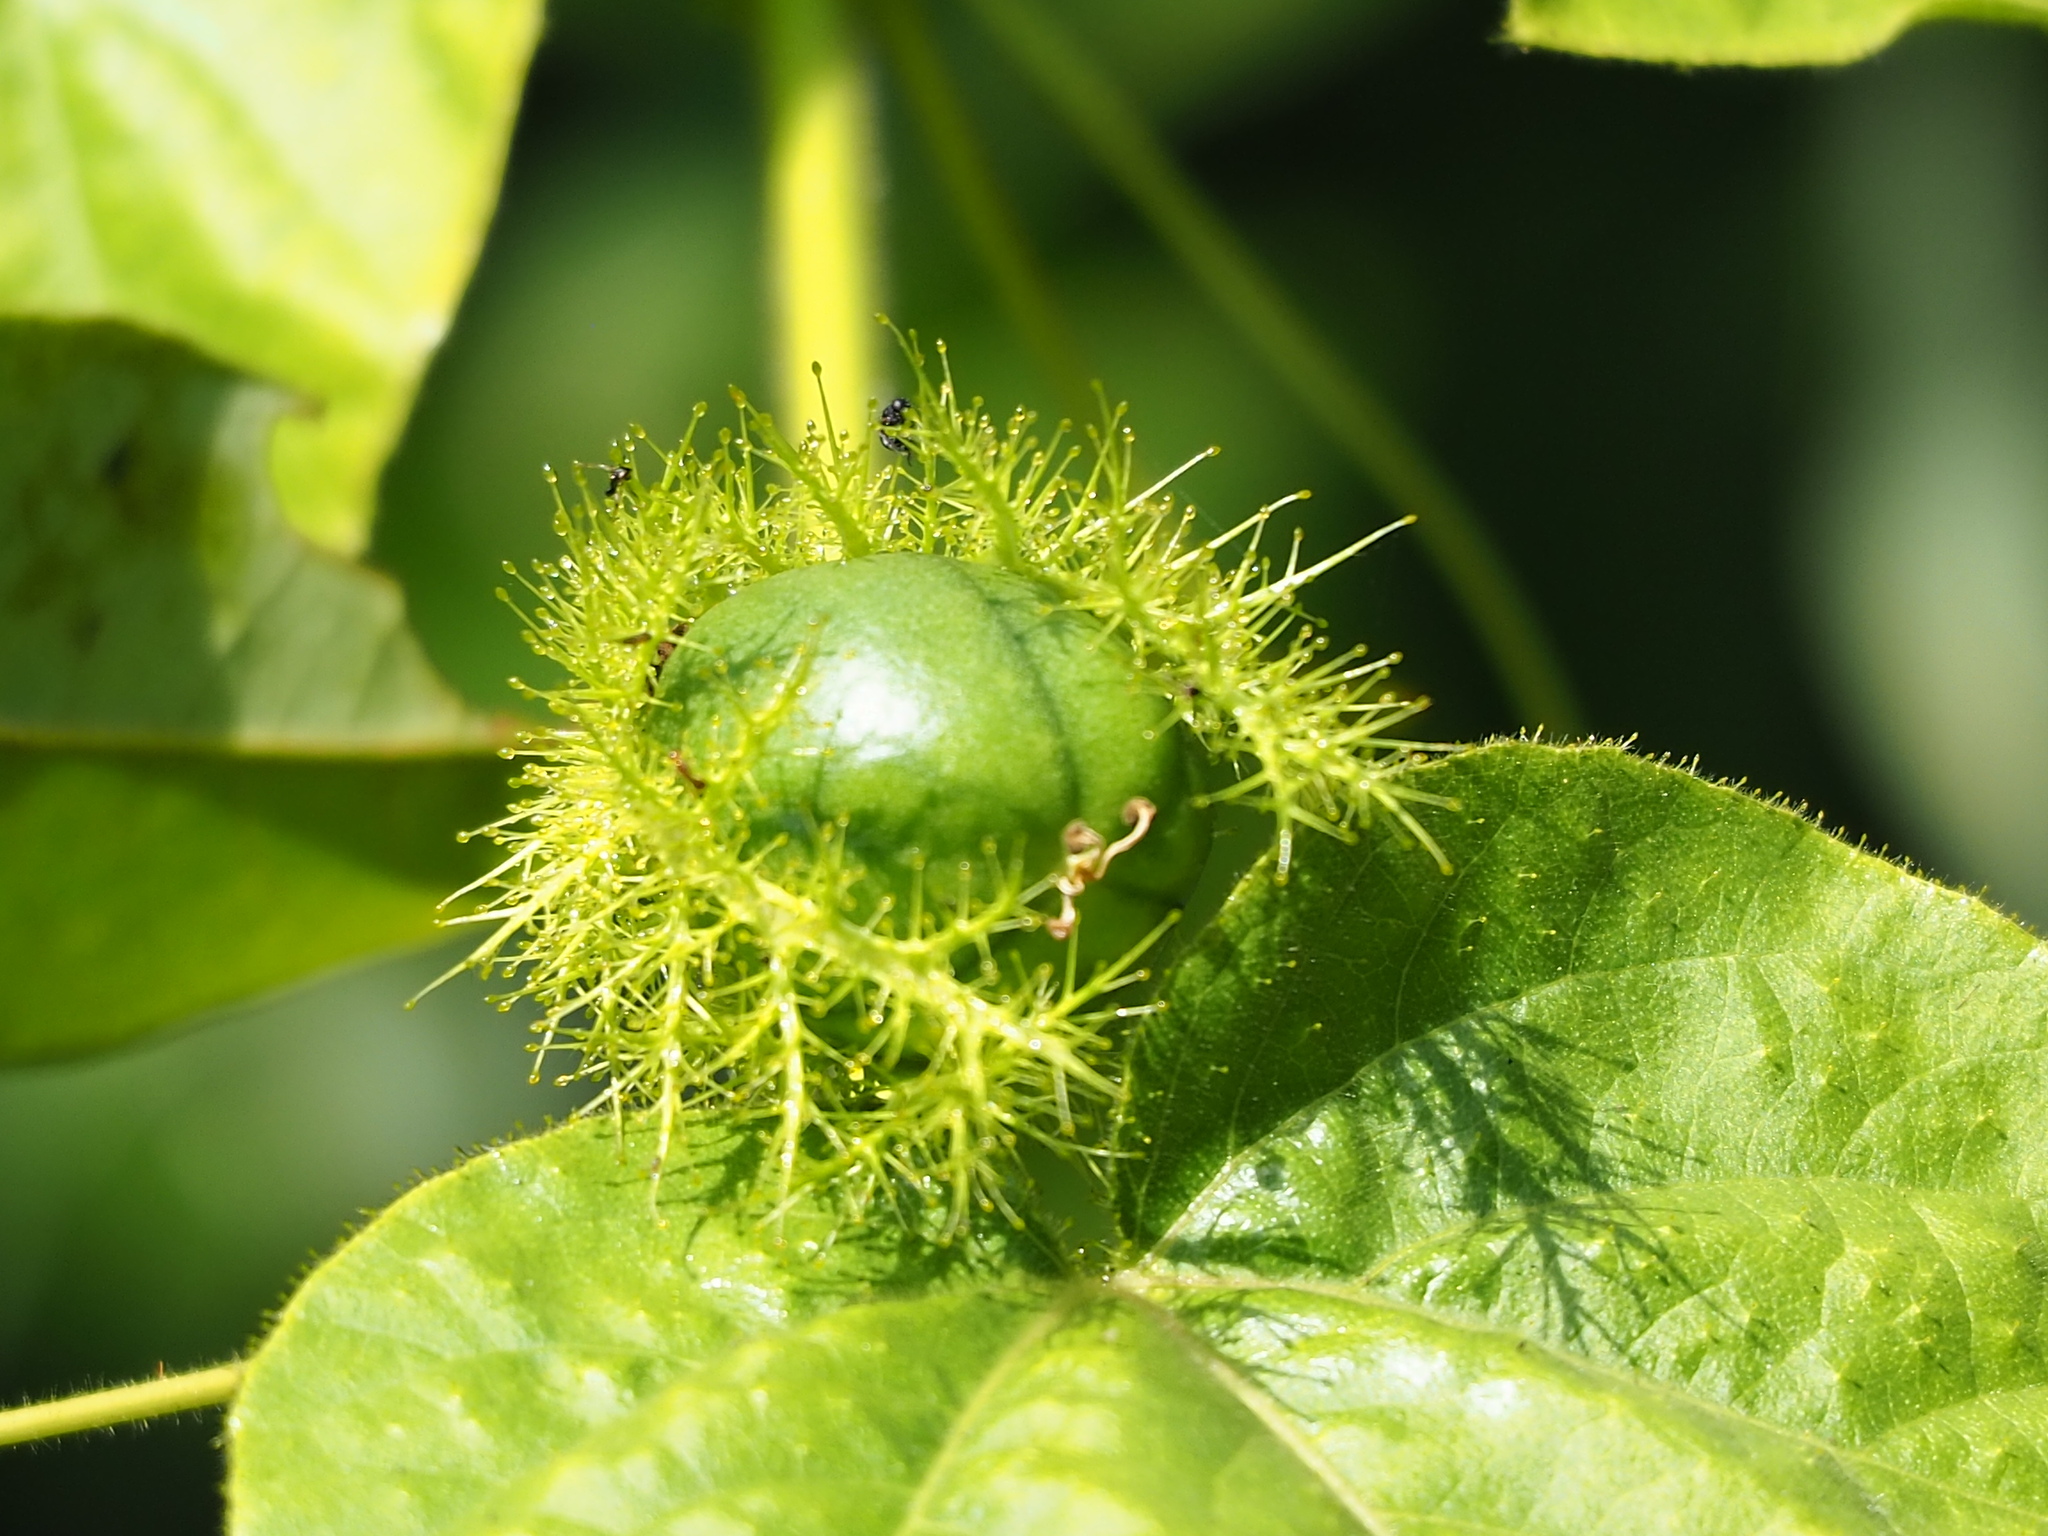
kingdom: Plantae
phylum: Tracheophyta
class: Magnoliopsida
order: Malpighiales
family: Passifloraceae
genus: Passiflora
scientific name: Passiflora vesicaria
